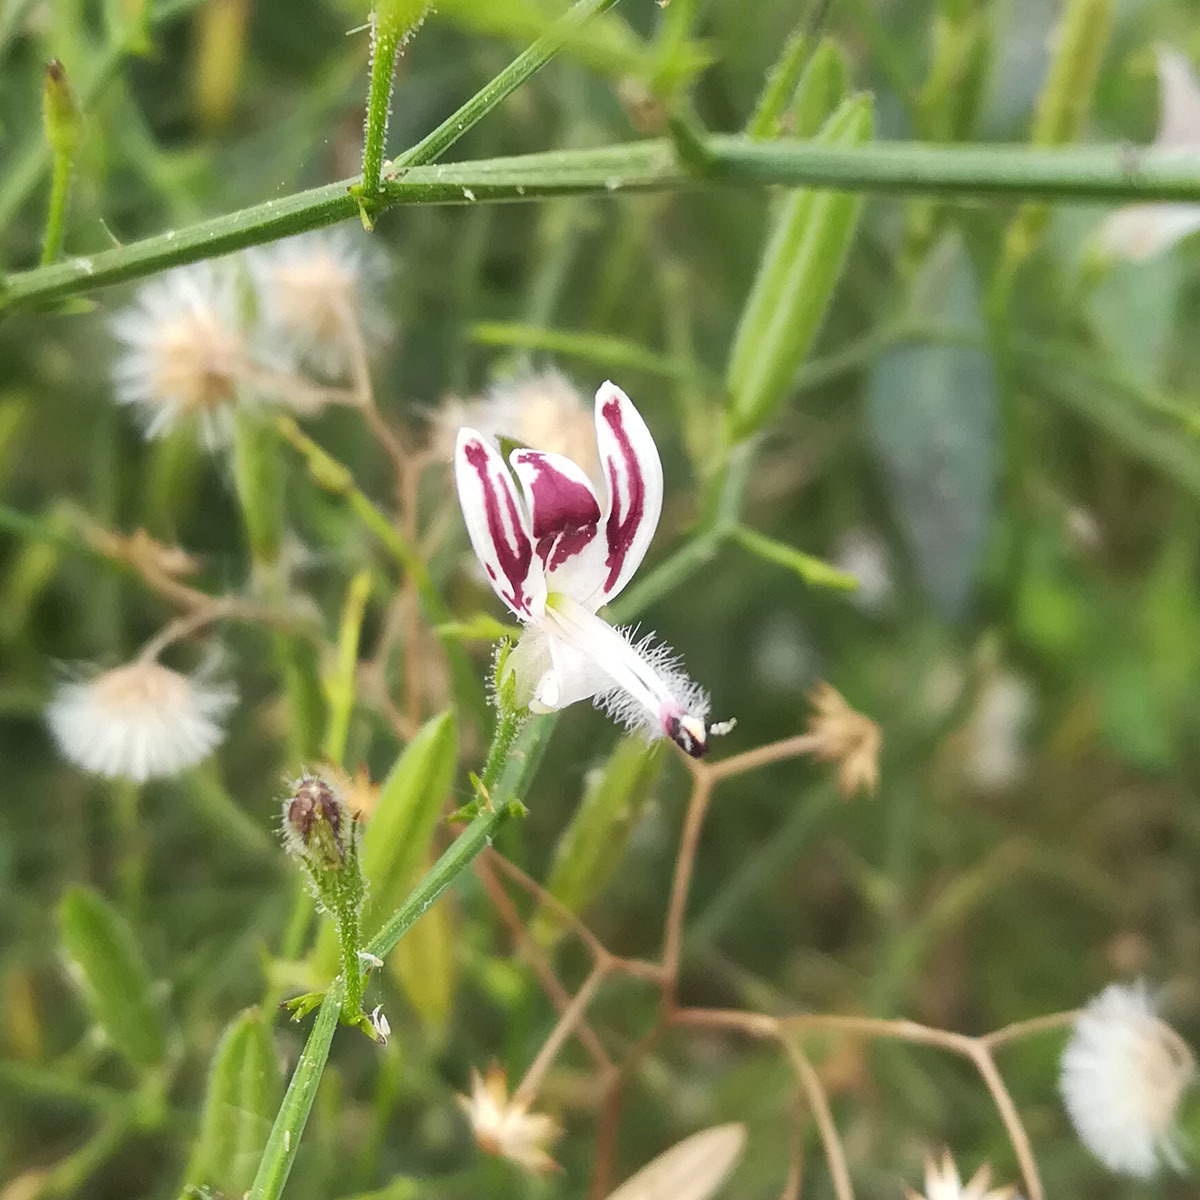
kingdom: Plantae
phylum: Tracheophyta
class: Magnoliopsida
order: Lamiales
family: Acanthaceae
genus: Andrographis
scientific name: Andrographis echioides
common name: False waterwillow
